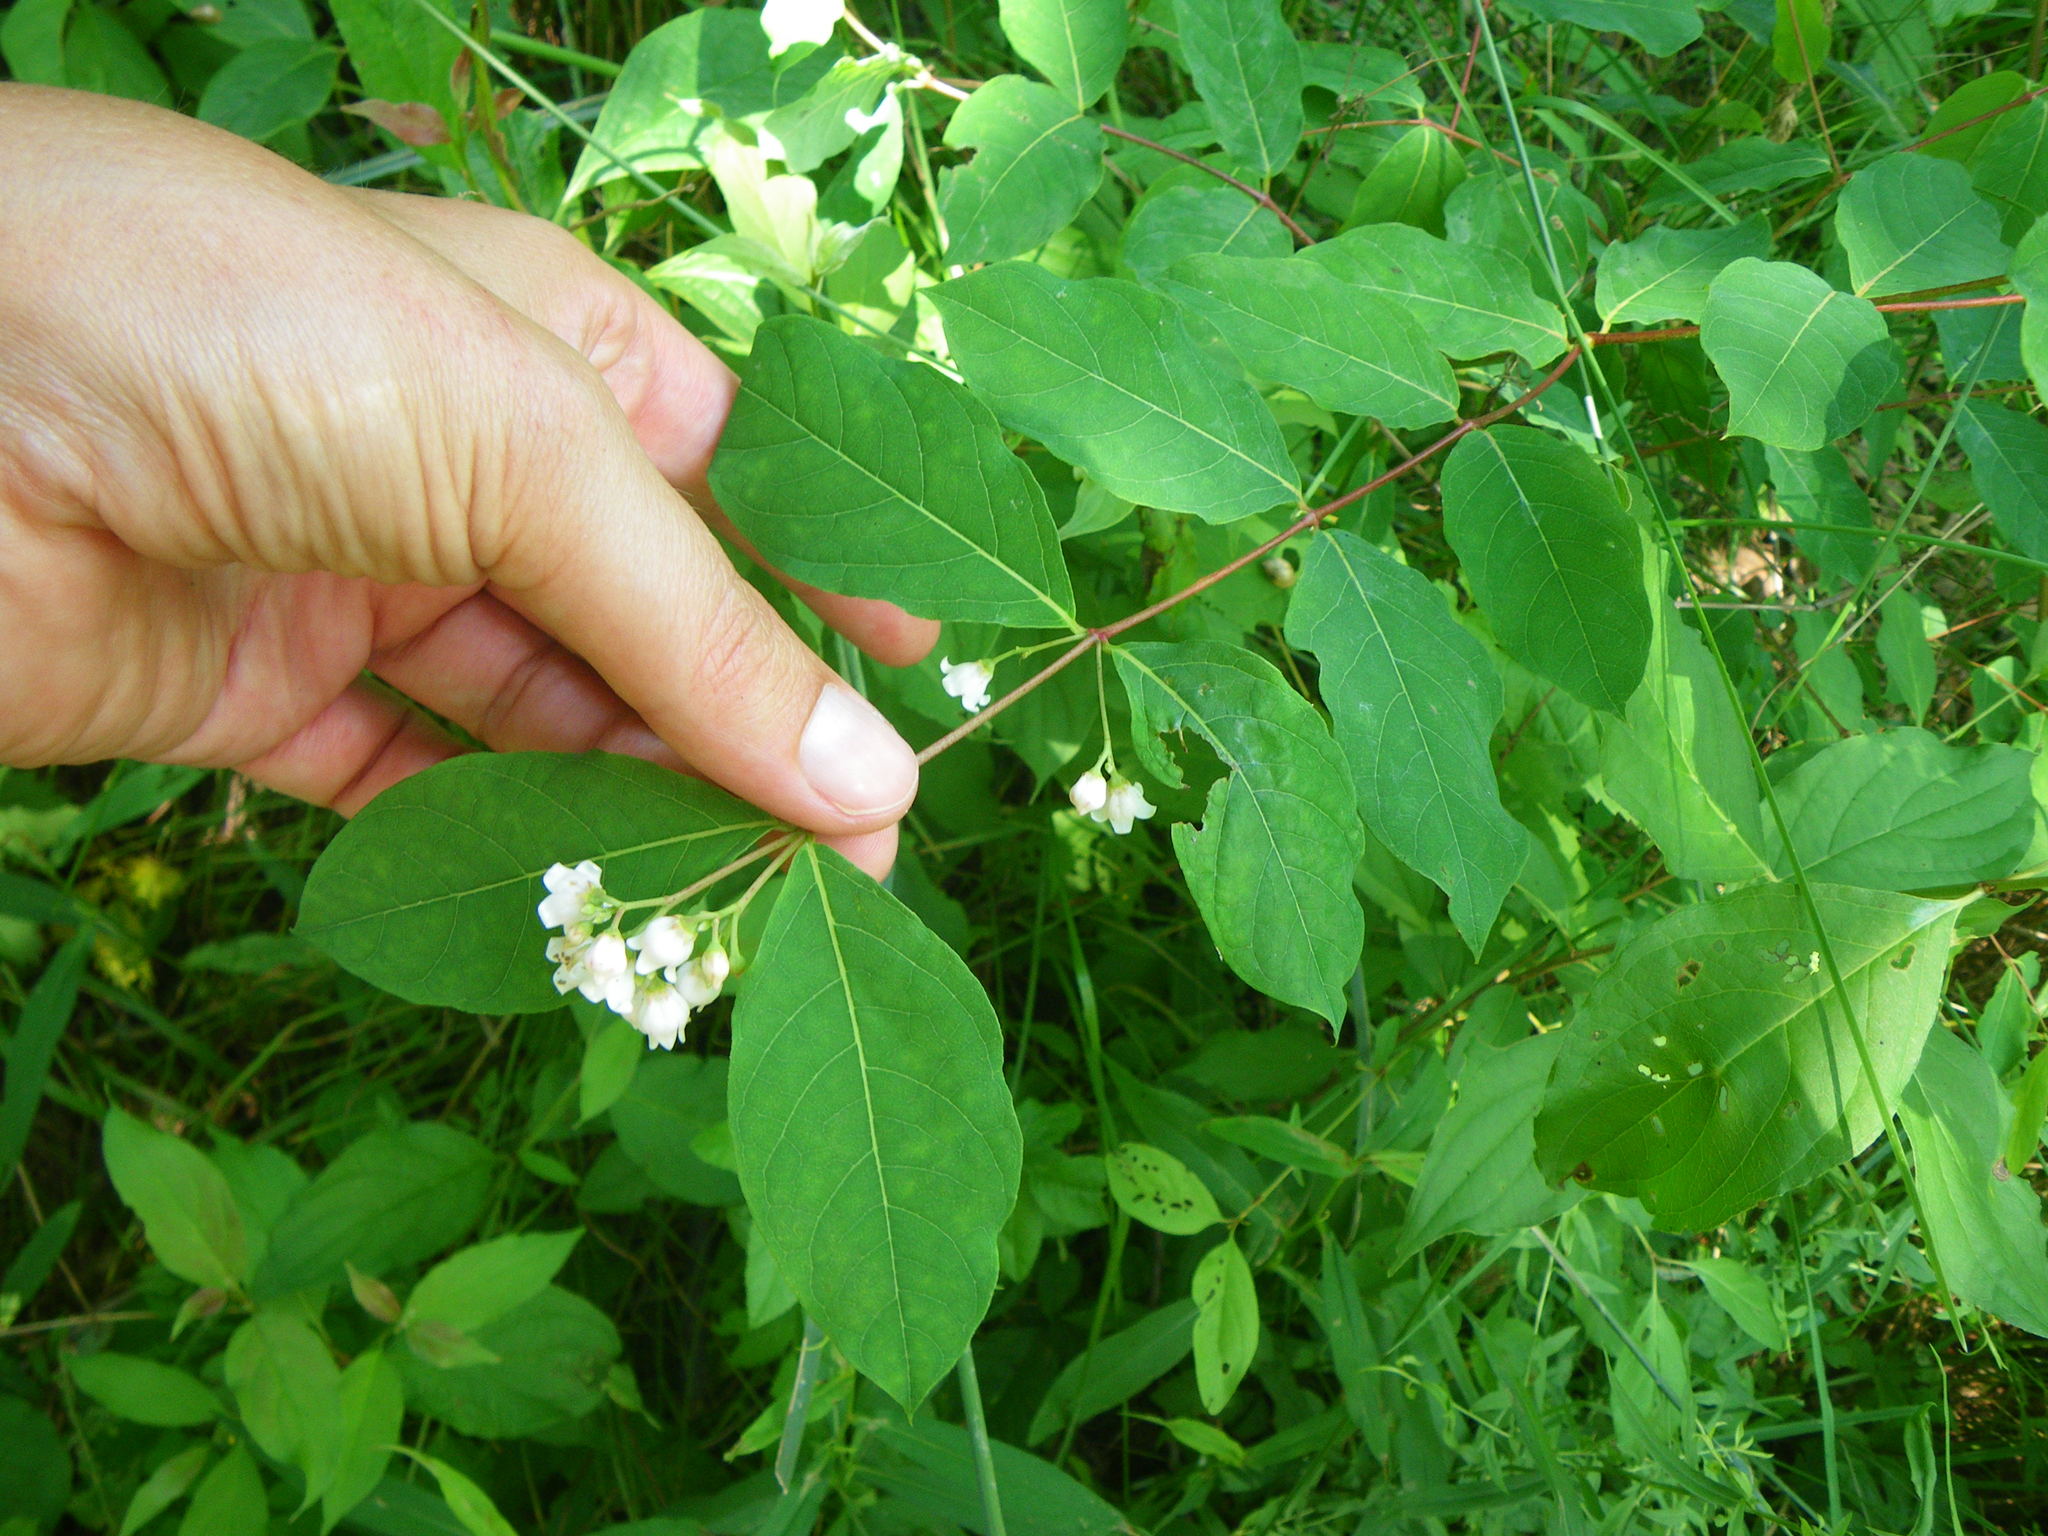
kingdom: Plantae
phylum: Tracheophyta
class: Magnoliopsida
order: Gentianales
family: Apocynaceae
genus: Apocynum
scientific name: Apocynum androsaemifolium
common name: Spreading dogbane
